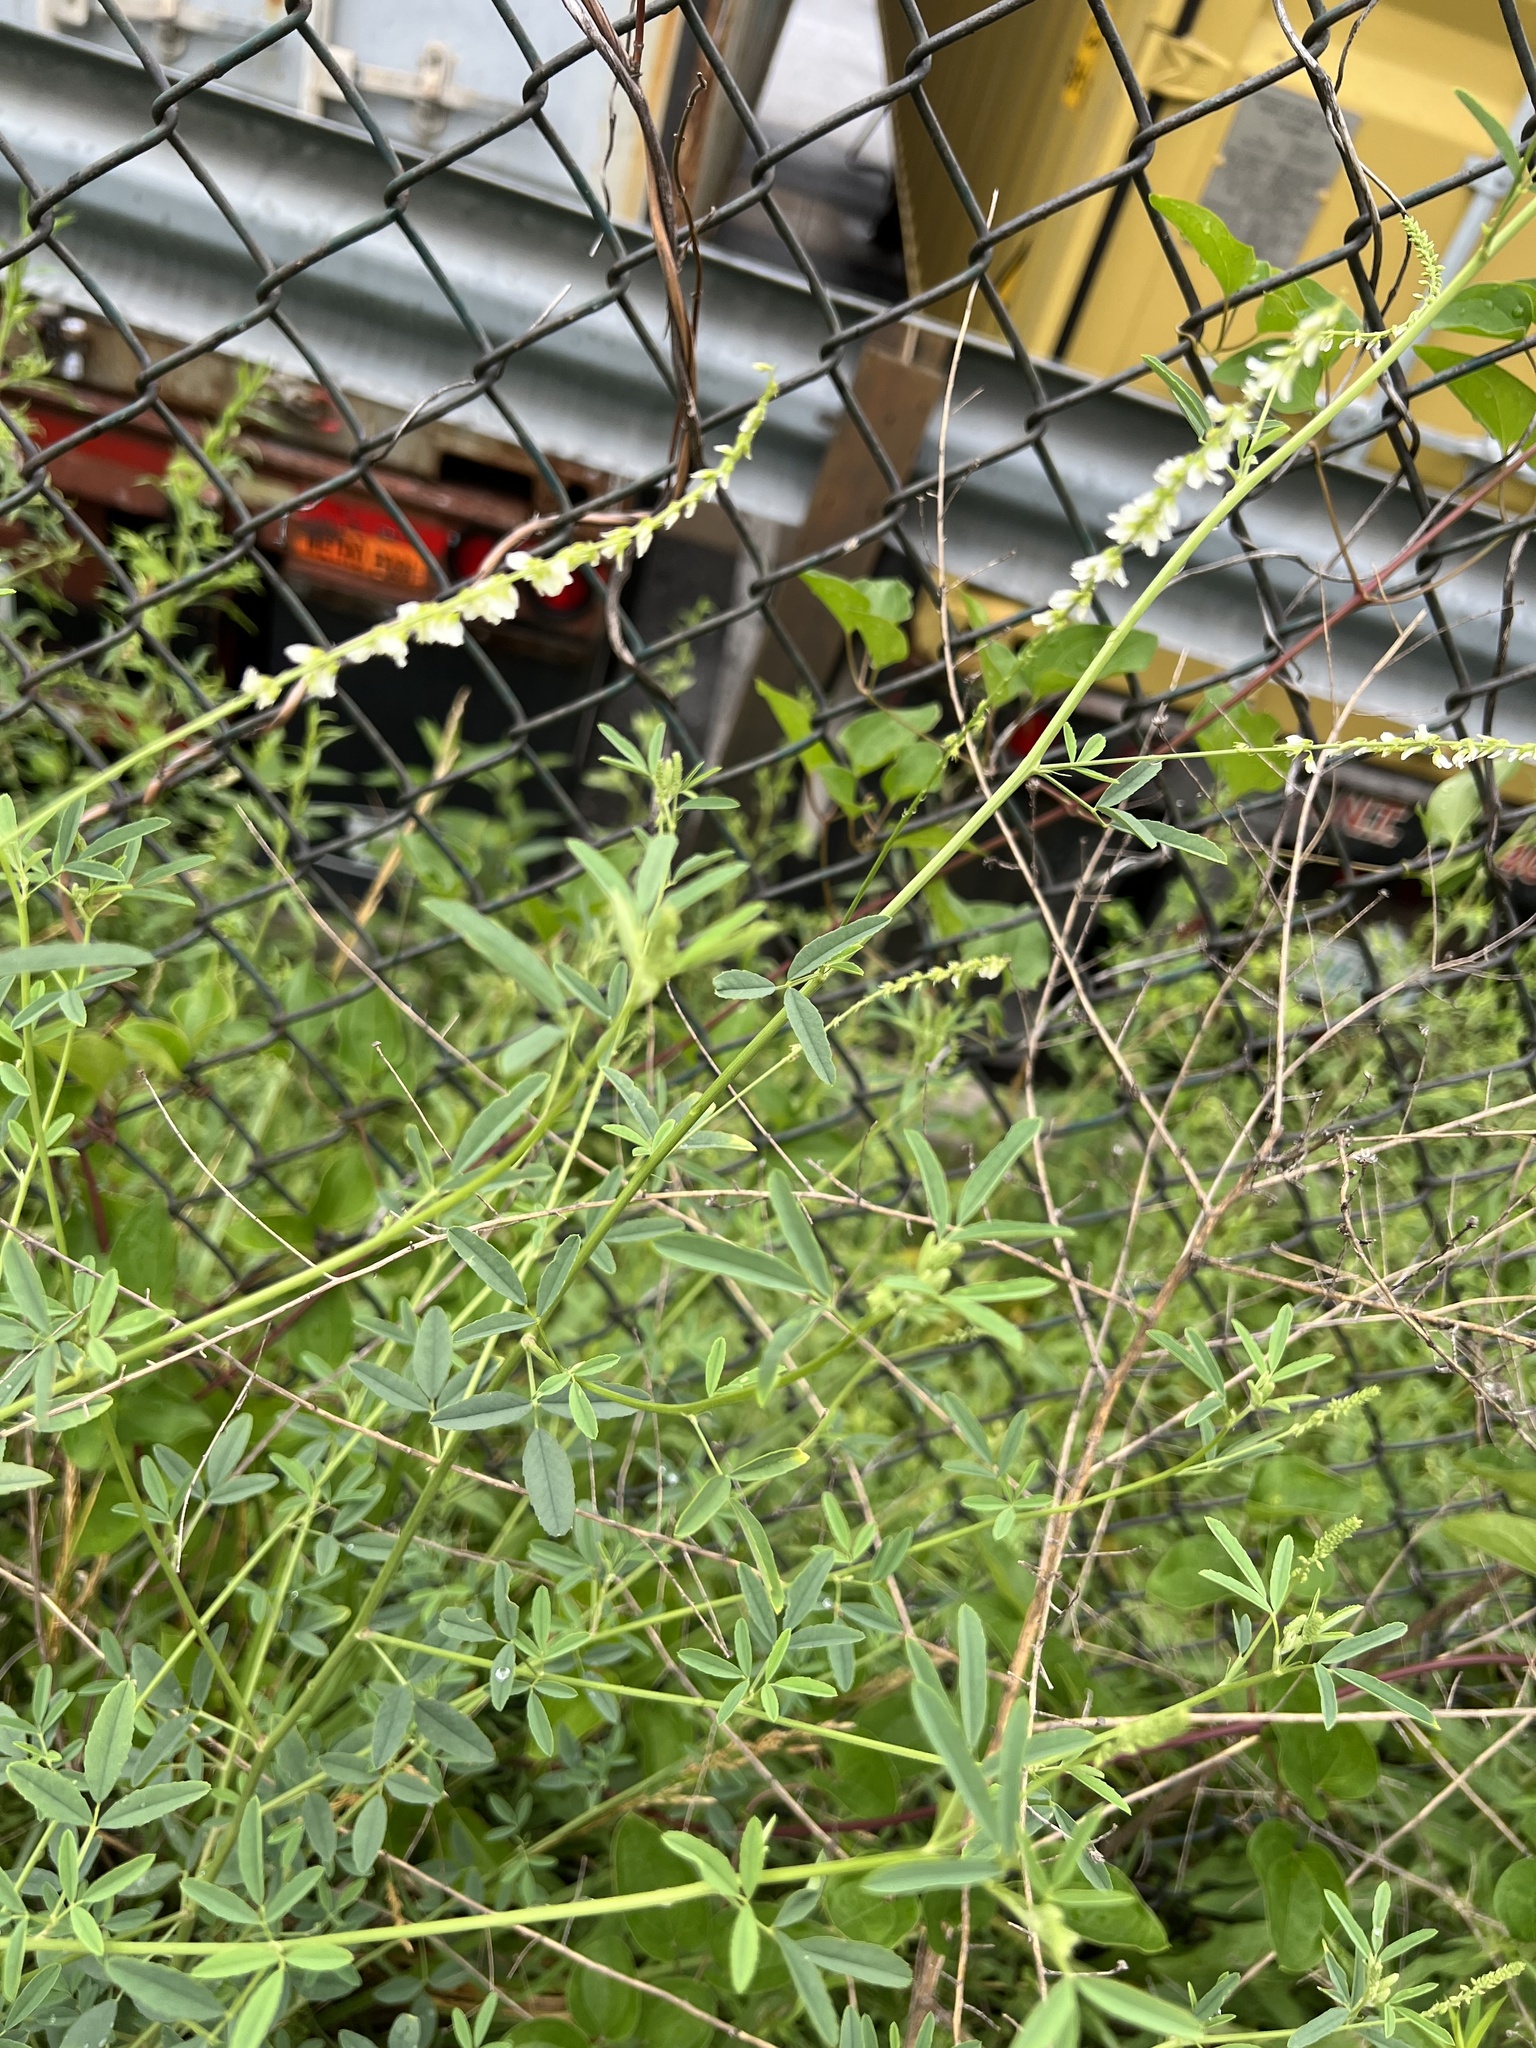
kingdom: Plantae
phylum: Tracheophyta
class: Magnoliopsida
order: Fabales
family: Fabaceae
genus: Melilotus
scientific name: Melilotus albus
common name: White melilot
